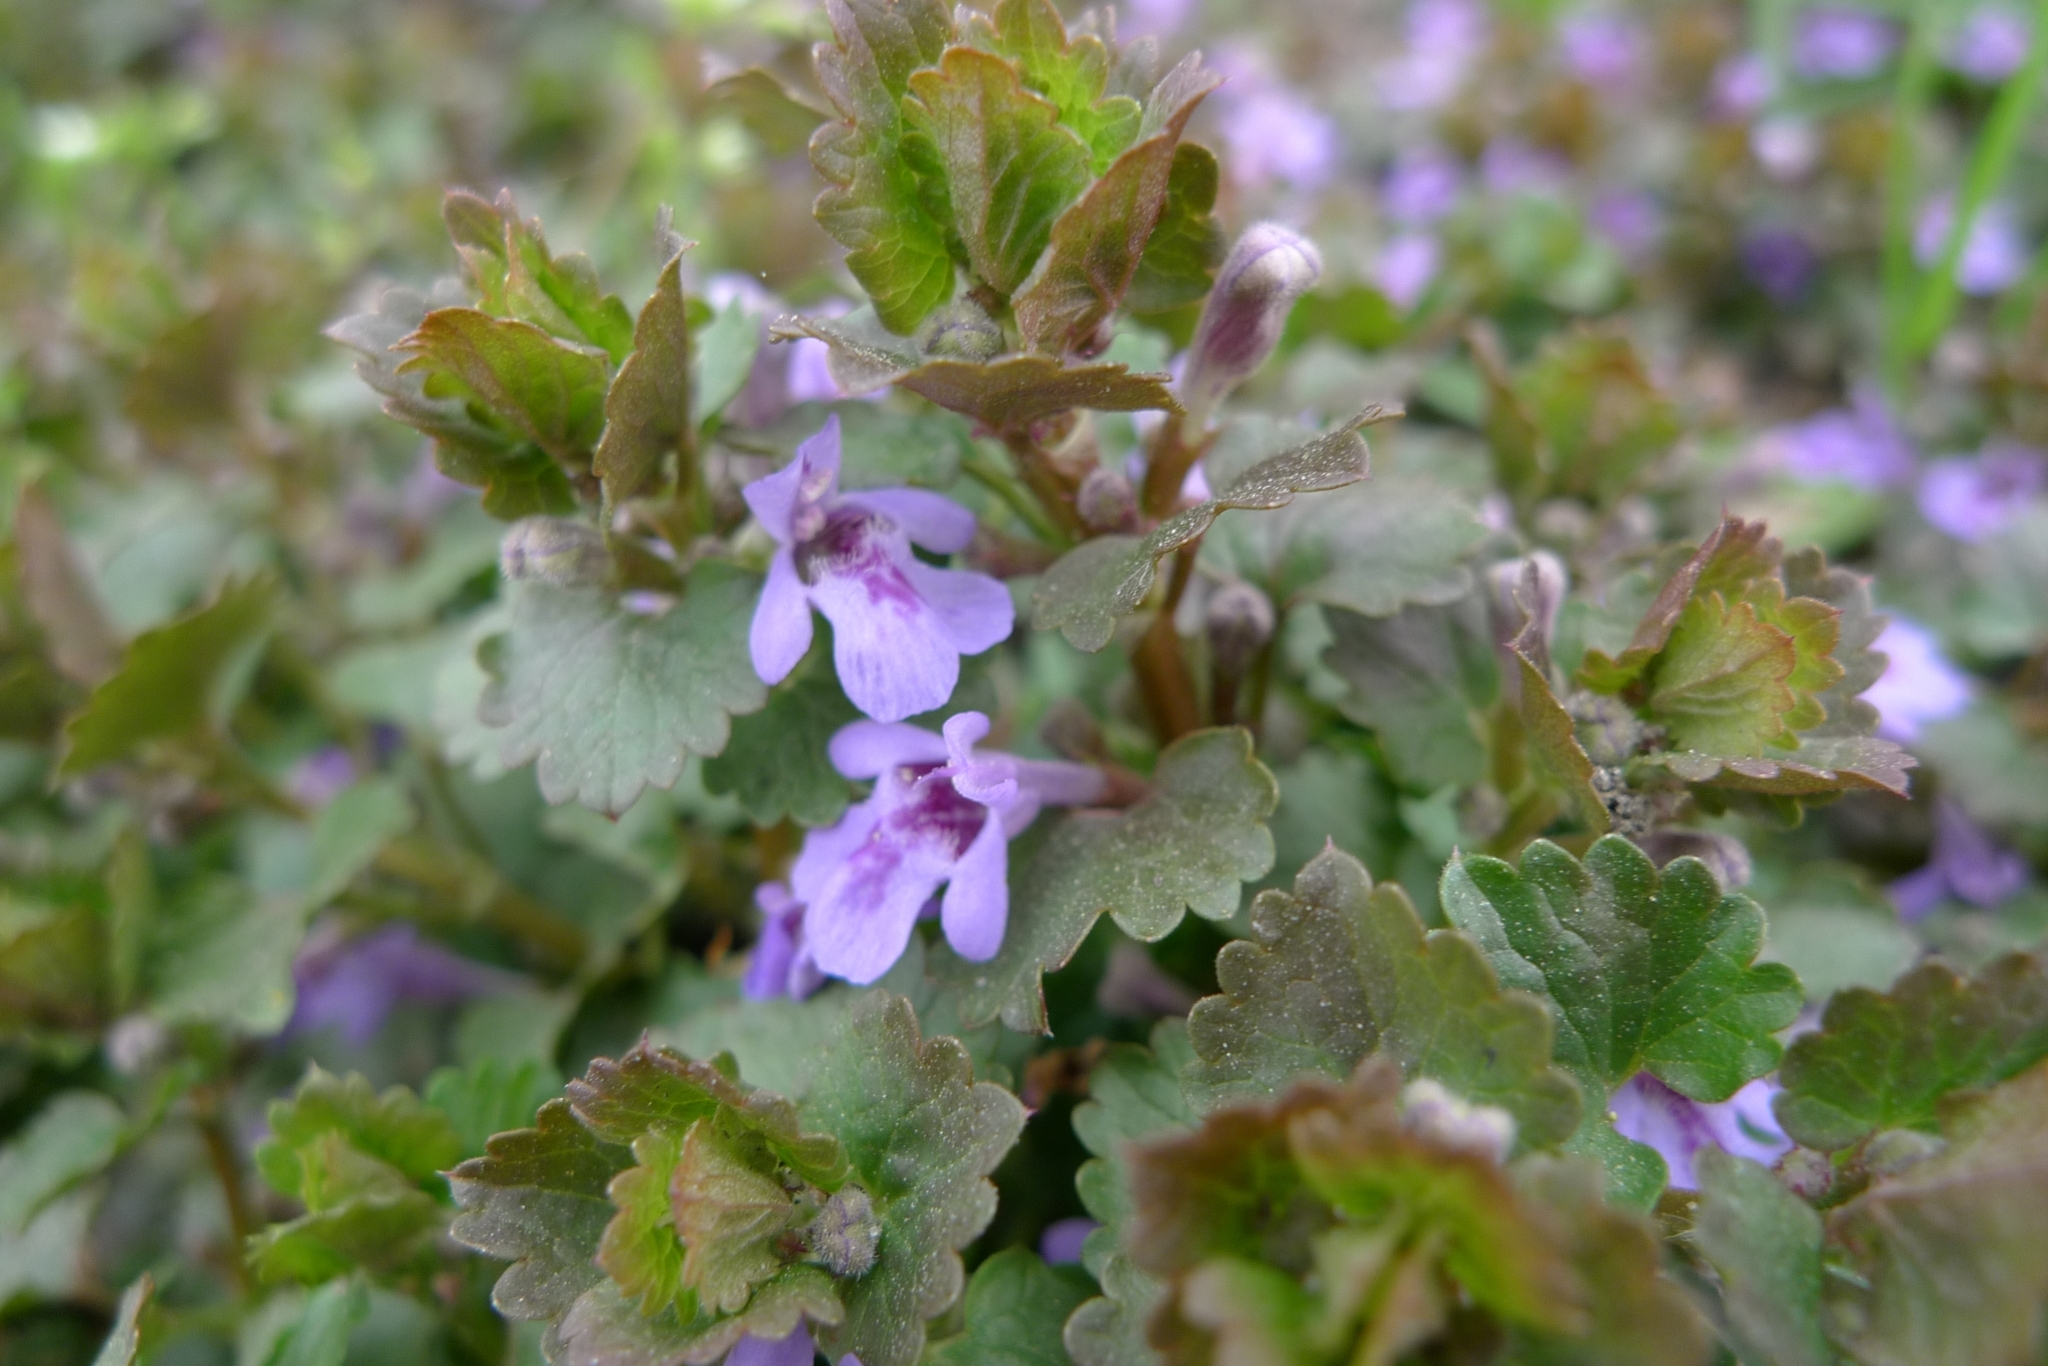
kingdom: Plantae
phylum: Tracheophyta
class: Magnoliopsida
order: Lamiales
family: Lamiaceae
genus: Glechoma
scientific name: Glechoma hederacea
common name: Ground ivy
